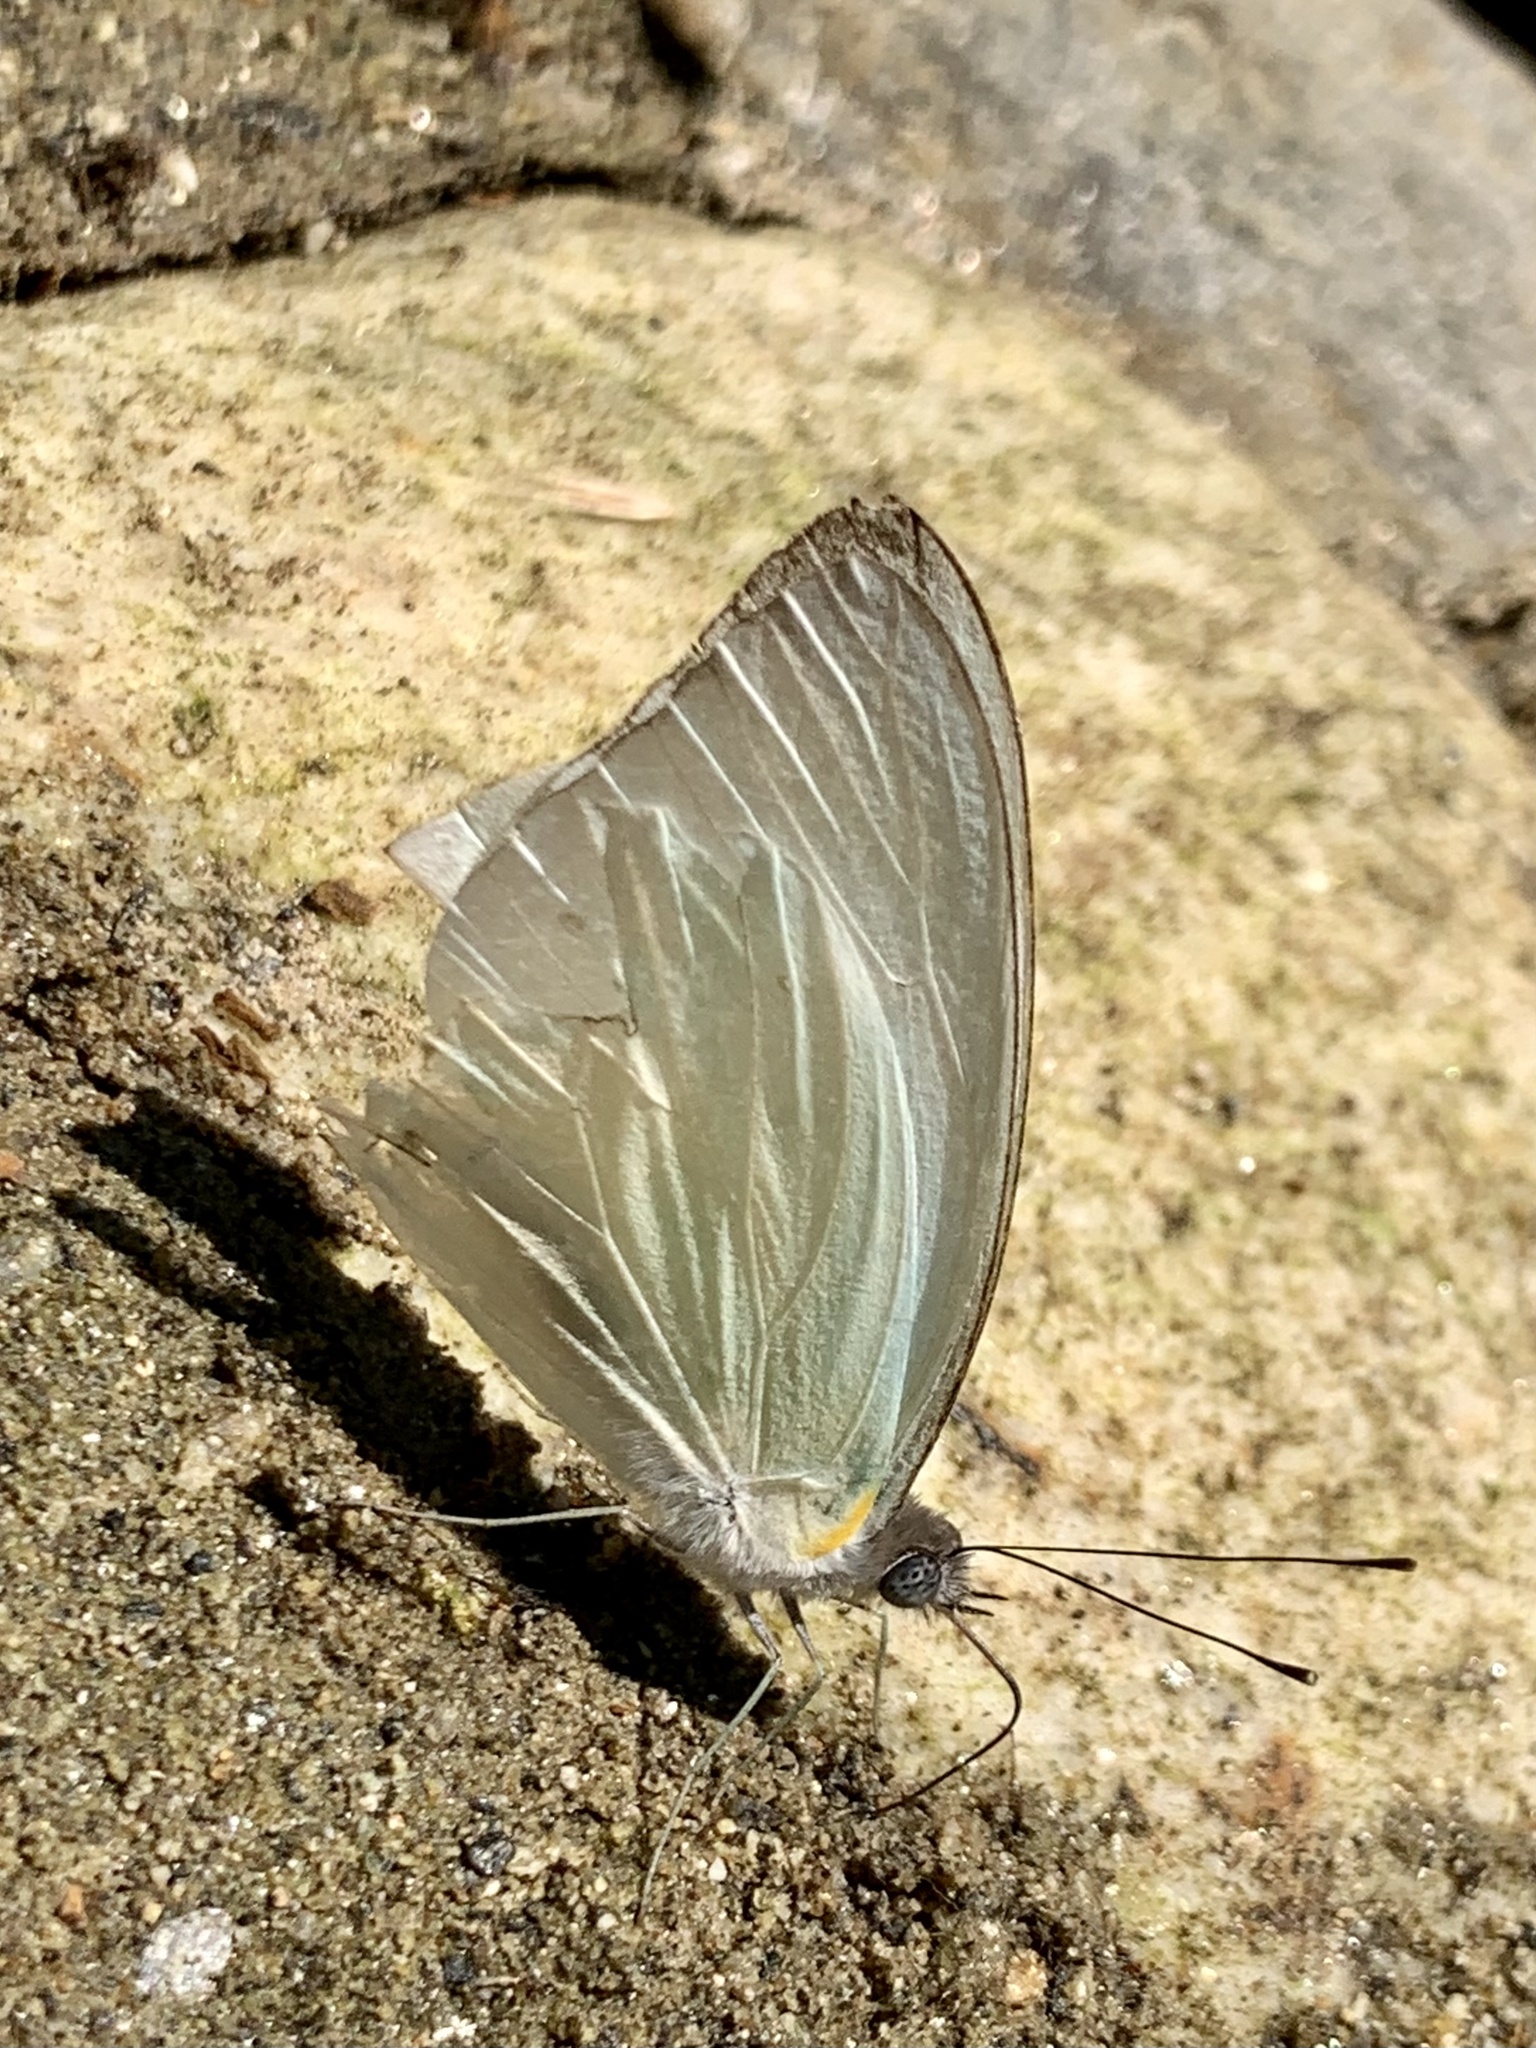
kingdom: Animalia
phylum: Arthropoda
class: Insecta
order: Lepidoptera
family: Pieridae
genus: Glutophrissa
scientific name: Glutophrissa drusilla
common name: Florida white
